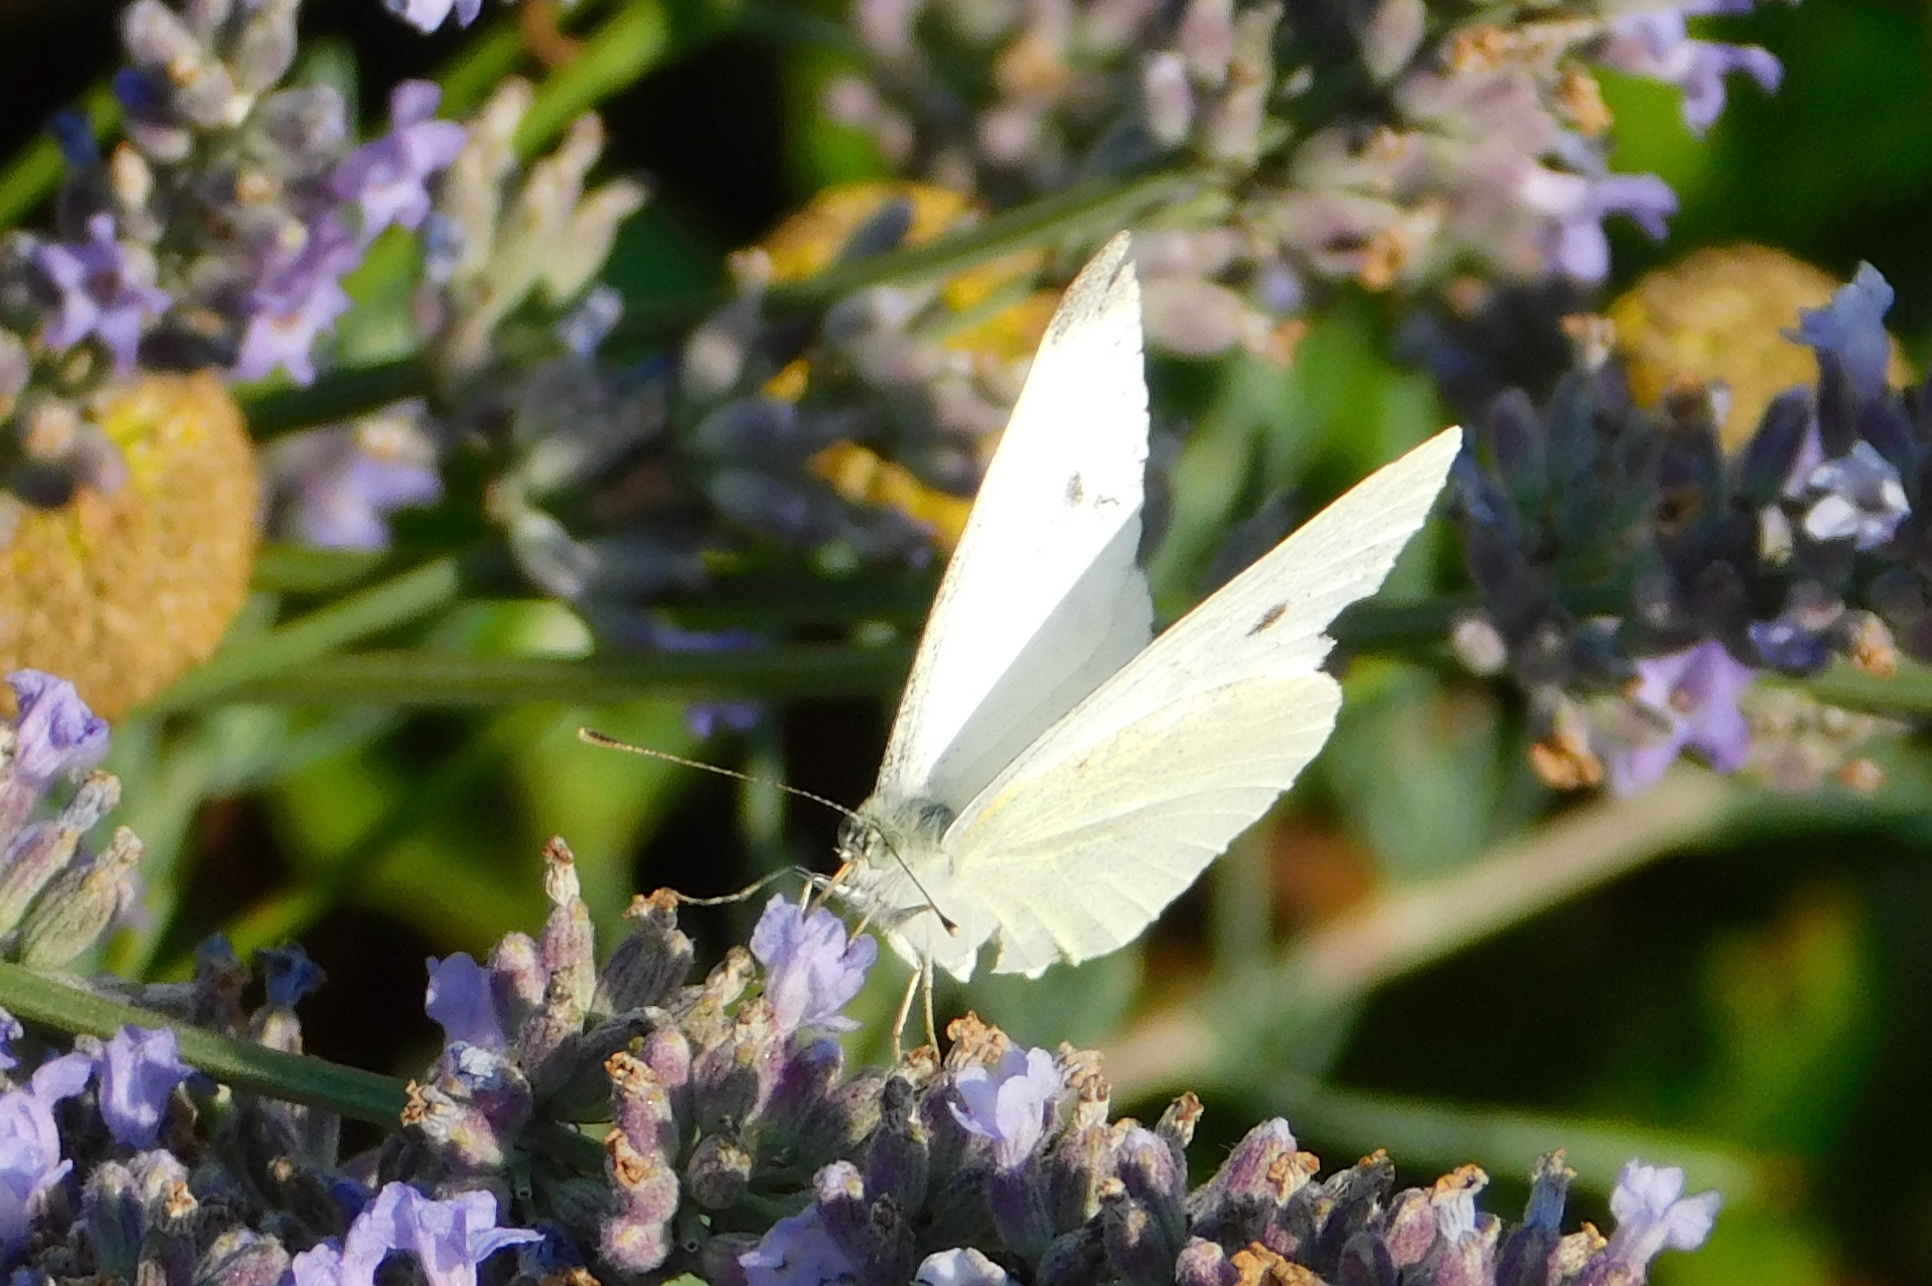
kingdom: Animalia
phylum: Arthropoda
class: Insecta
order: Lepidoptera
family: Pieridae
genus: Pieris
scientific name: Pieris rapae
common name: Small white
